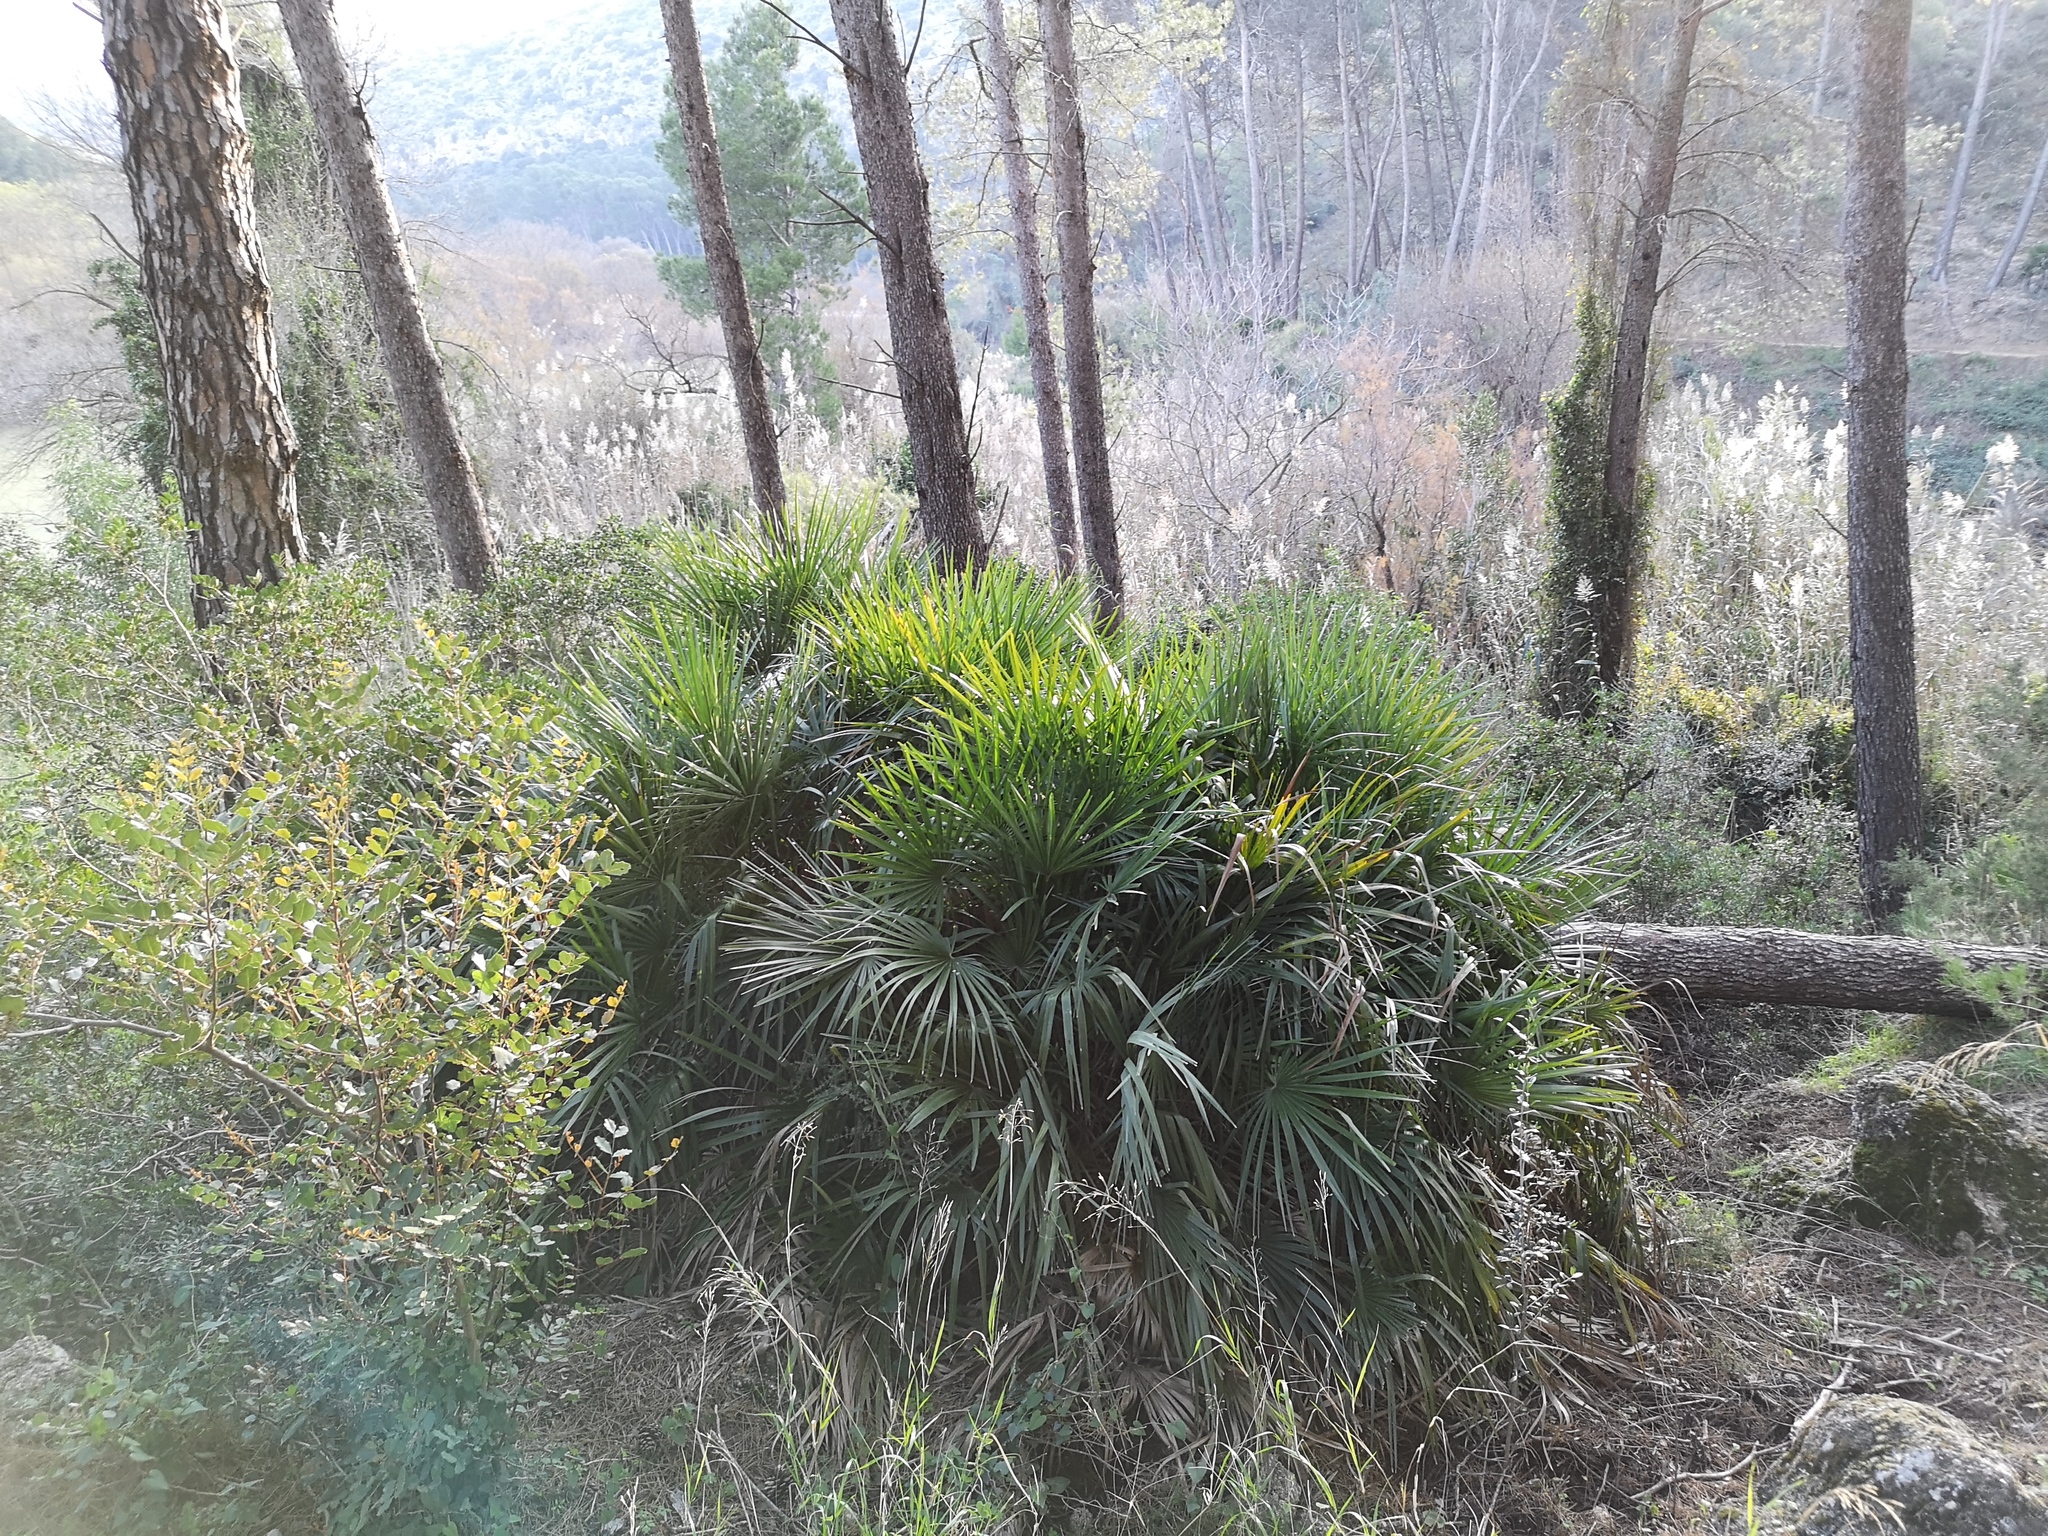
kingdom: Plantae
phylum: Tracheophyta
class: Liliopsida
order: Arecales
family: Arecaceae
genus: Chamaerops
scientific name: Chamaerops humilis
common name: Dwarf fan palm
